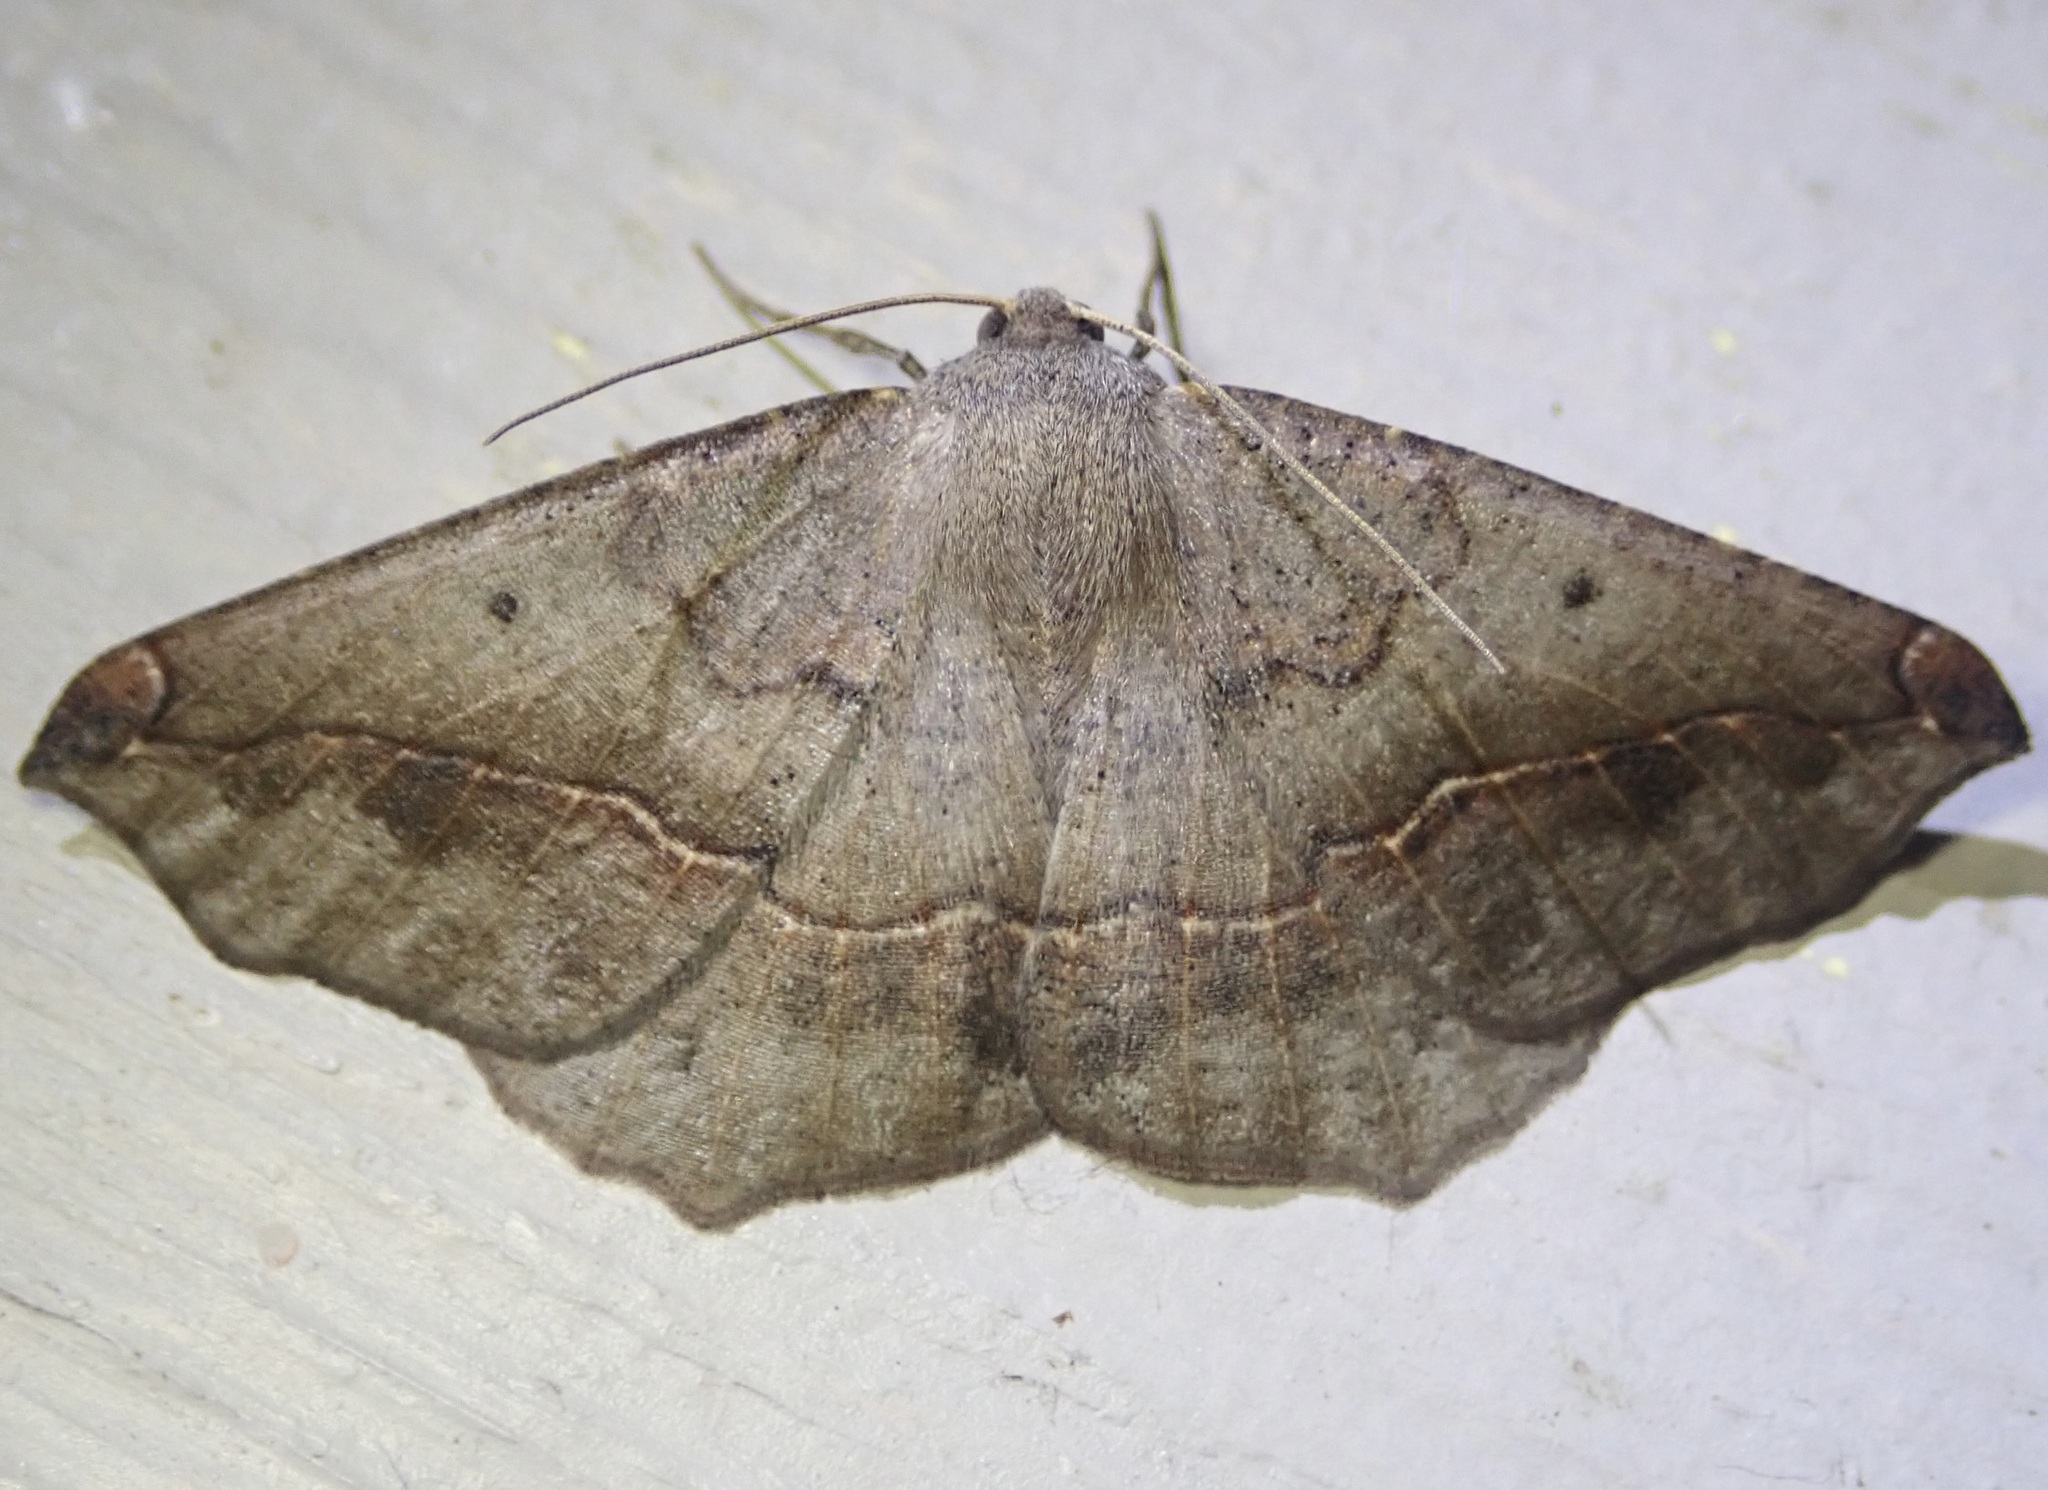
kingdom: Animalia
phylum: Arthropoda
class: Insecta
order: Lepidoptera
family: Geometridae
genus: Prochoerodes
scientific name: Prochoerodes forficaria
